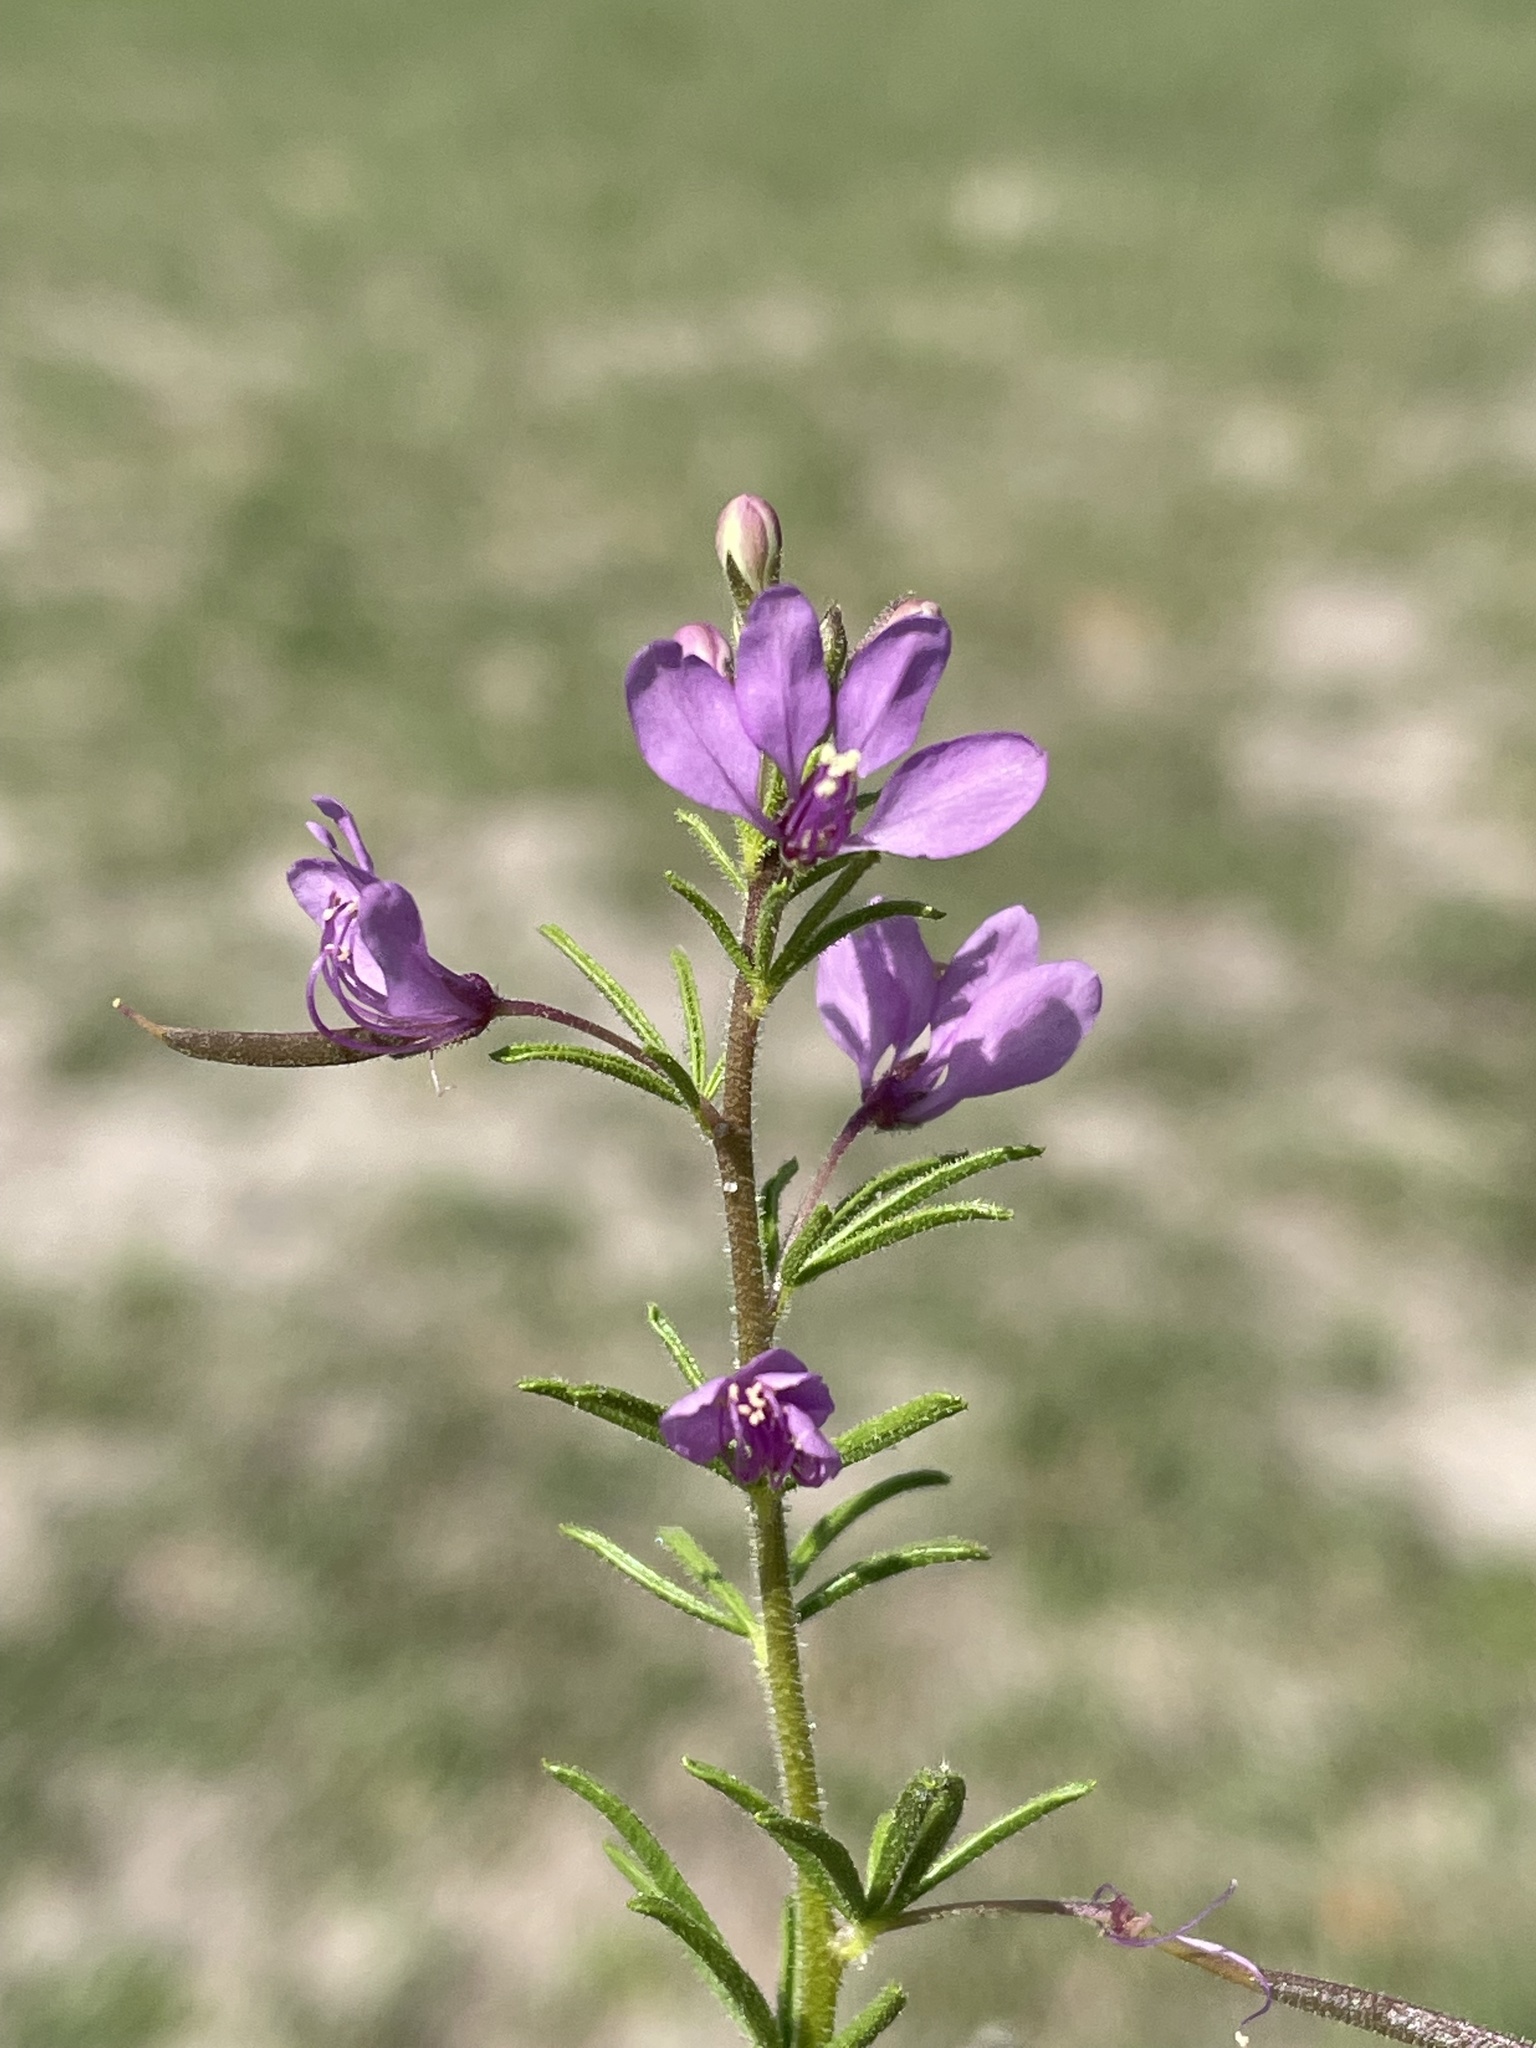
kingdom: Plantae
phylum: Tracheophyta
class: Magnoliopsida
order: Brassicales
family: Cleomaceae
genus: Sieruela
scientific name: Sieruela
